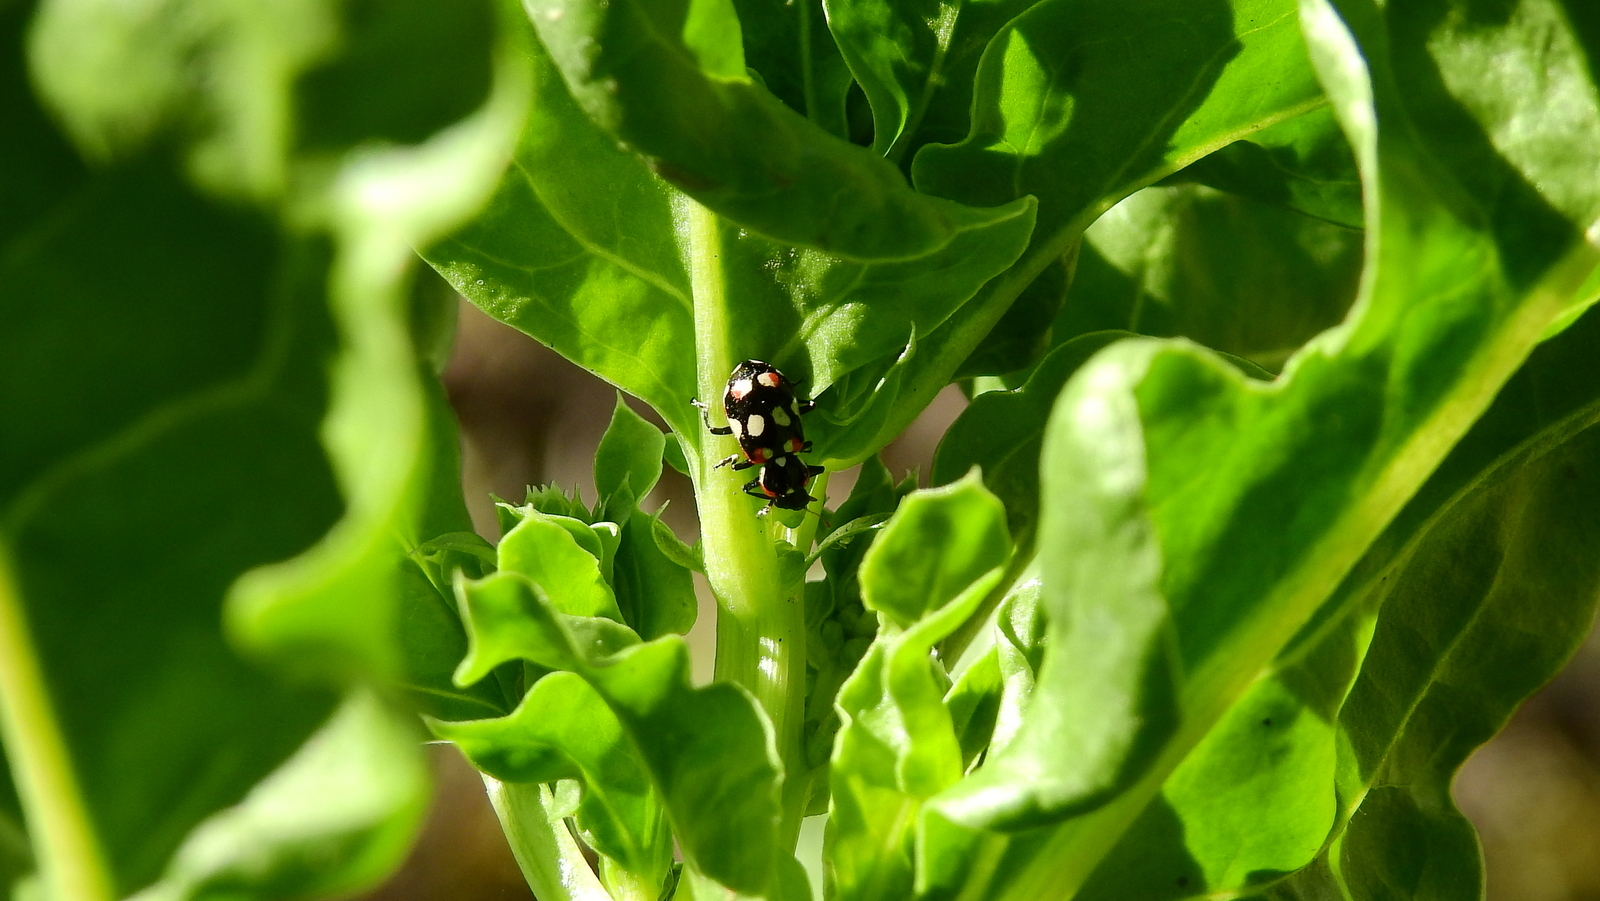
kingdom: Animalia
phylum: Arthropoda
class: Insecta
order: Coleoptera
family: Coccinellidae
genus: Eriopis
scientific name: Eriopis connexa
